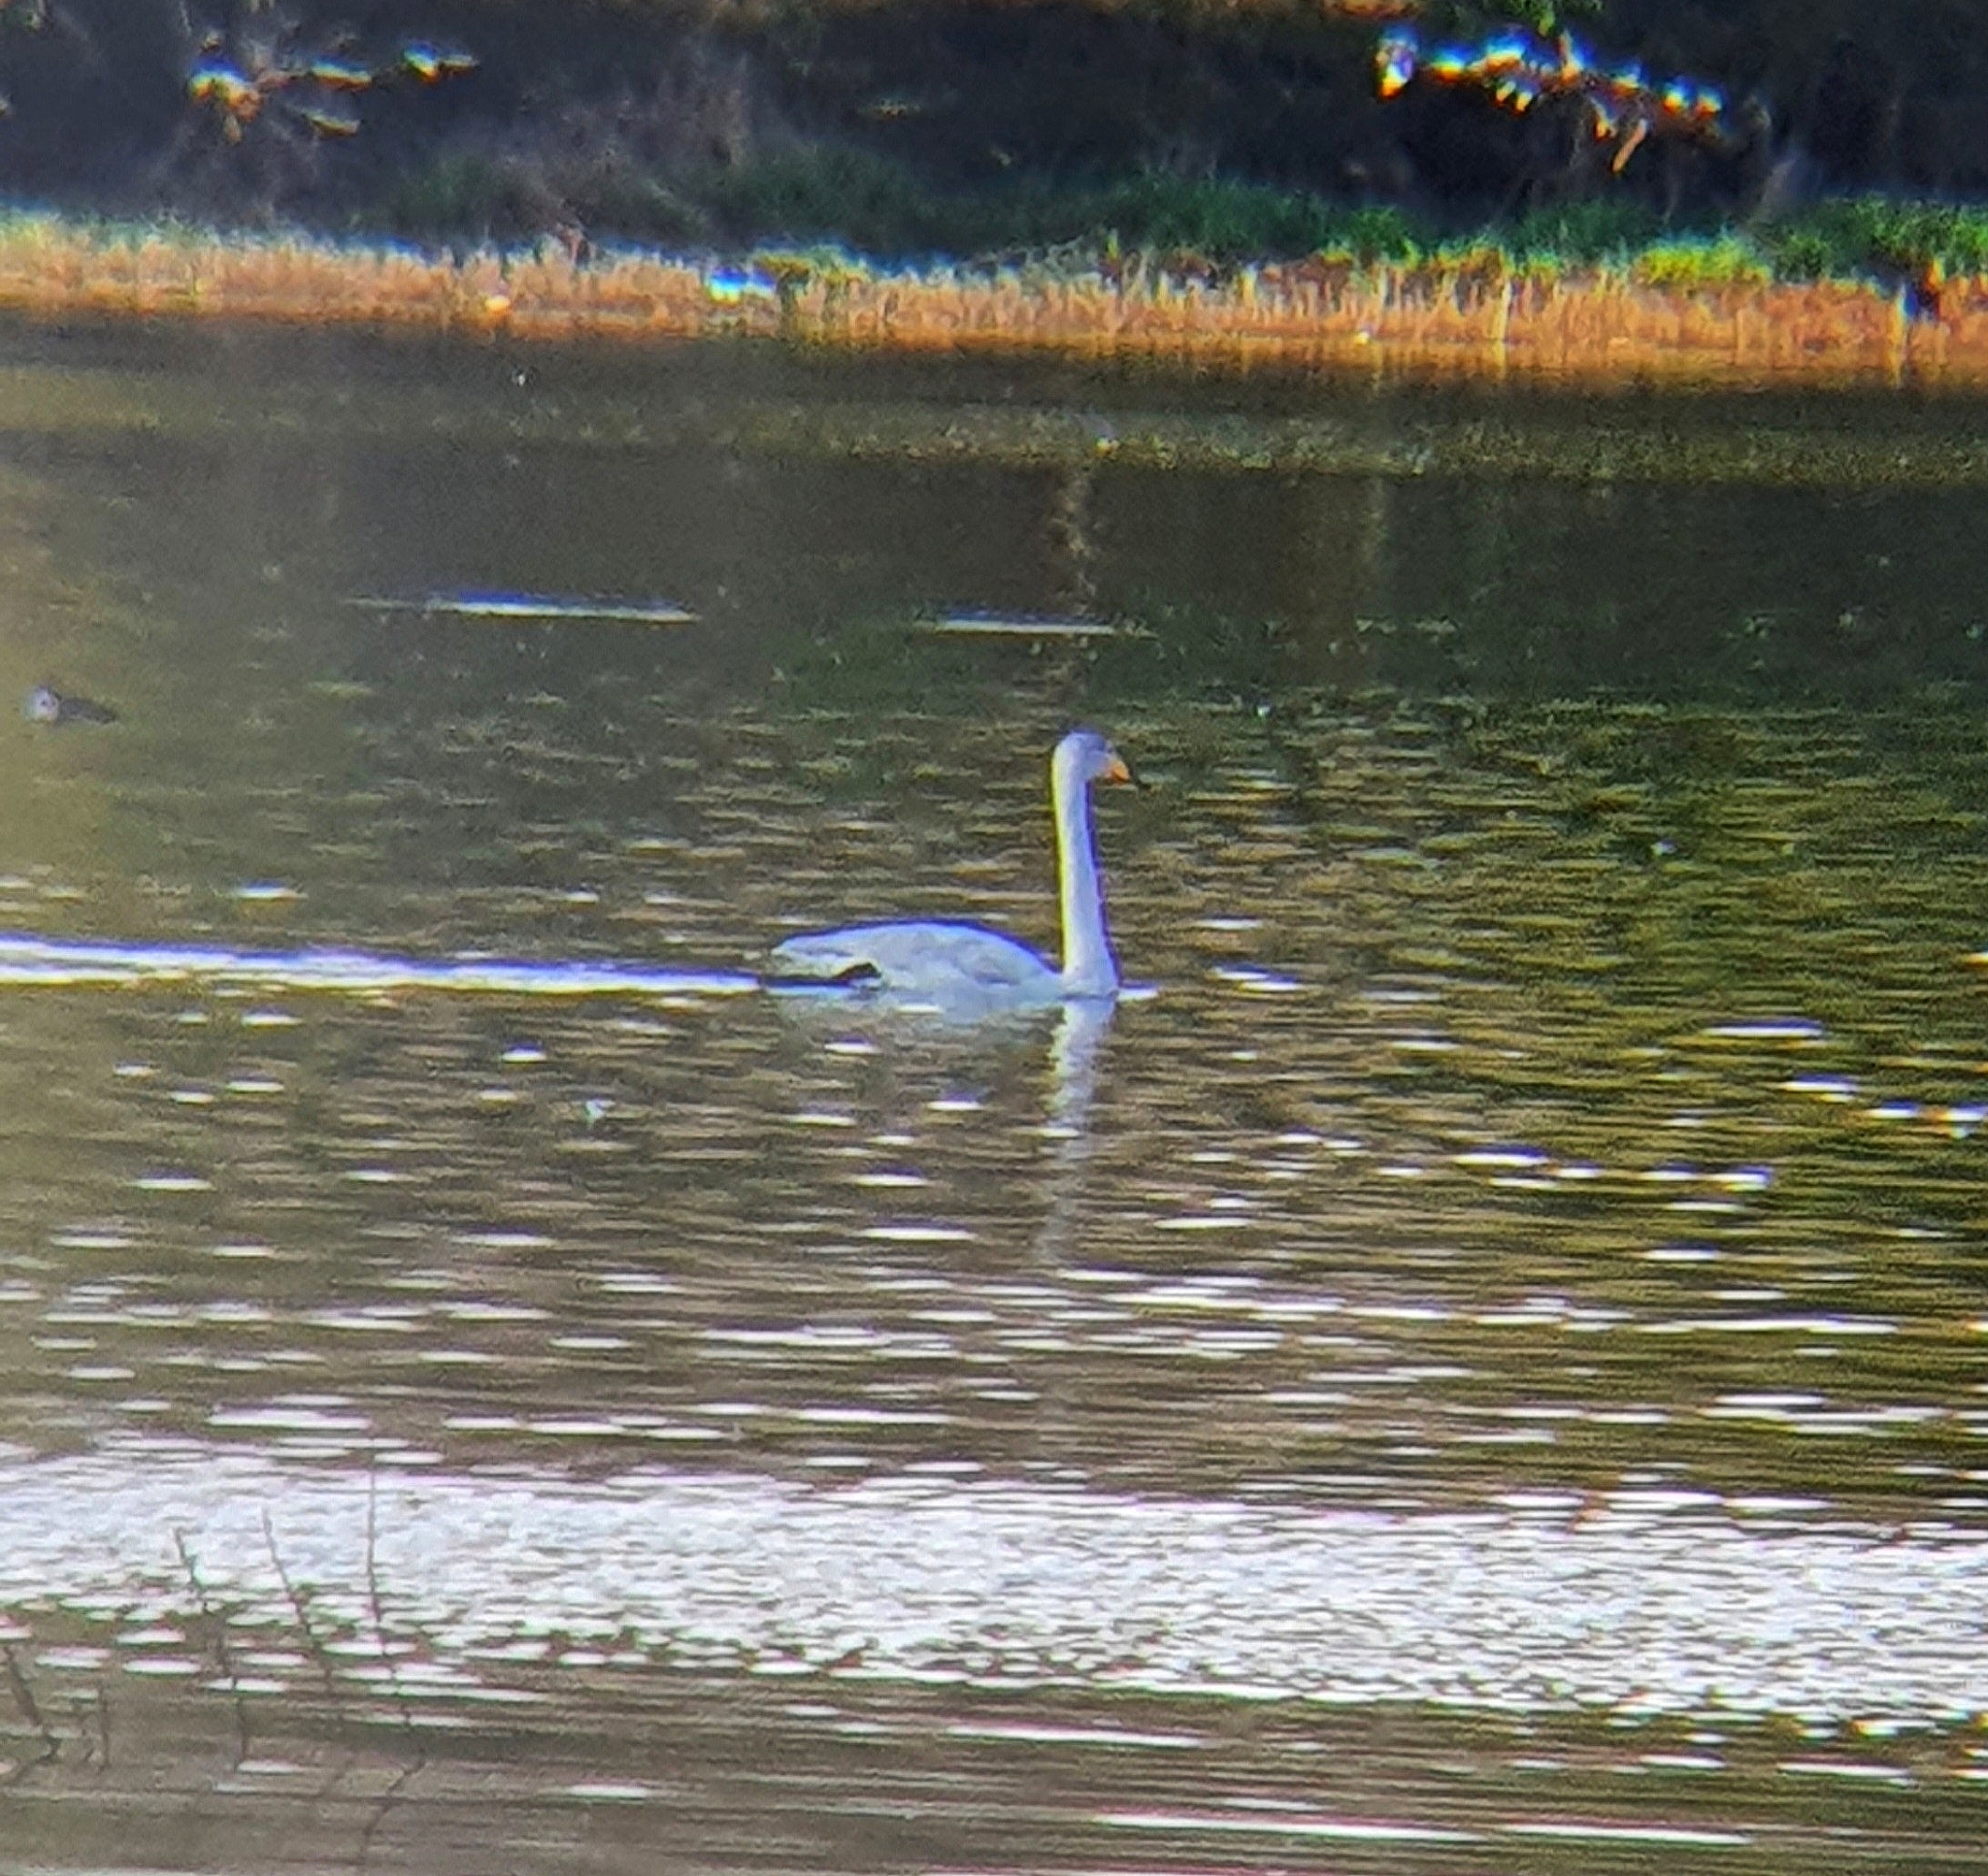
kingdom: Animalia
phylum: Chordata
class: Aves
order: Anseriformes
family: Anatidae
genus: Cygnus
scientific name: Cygnus cygnus
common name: Whooper swan
